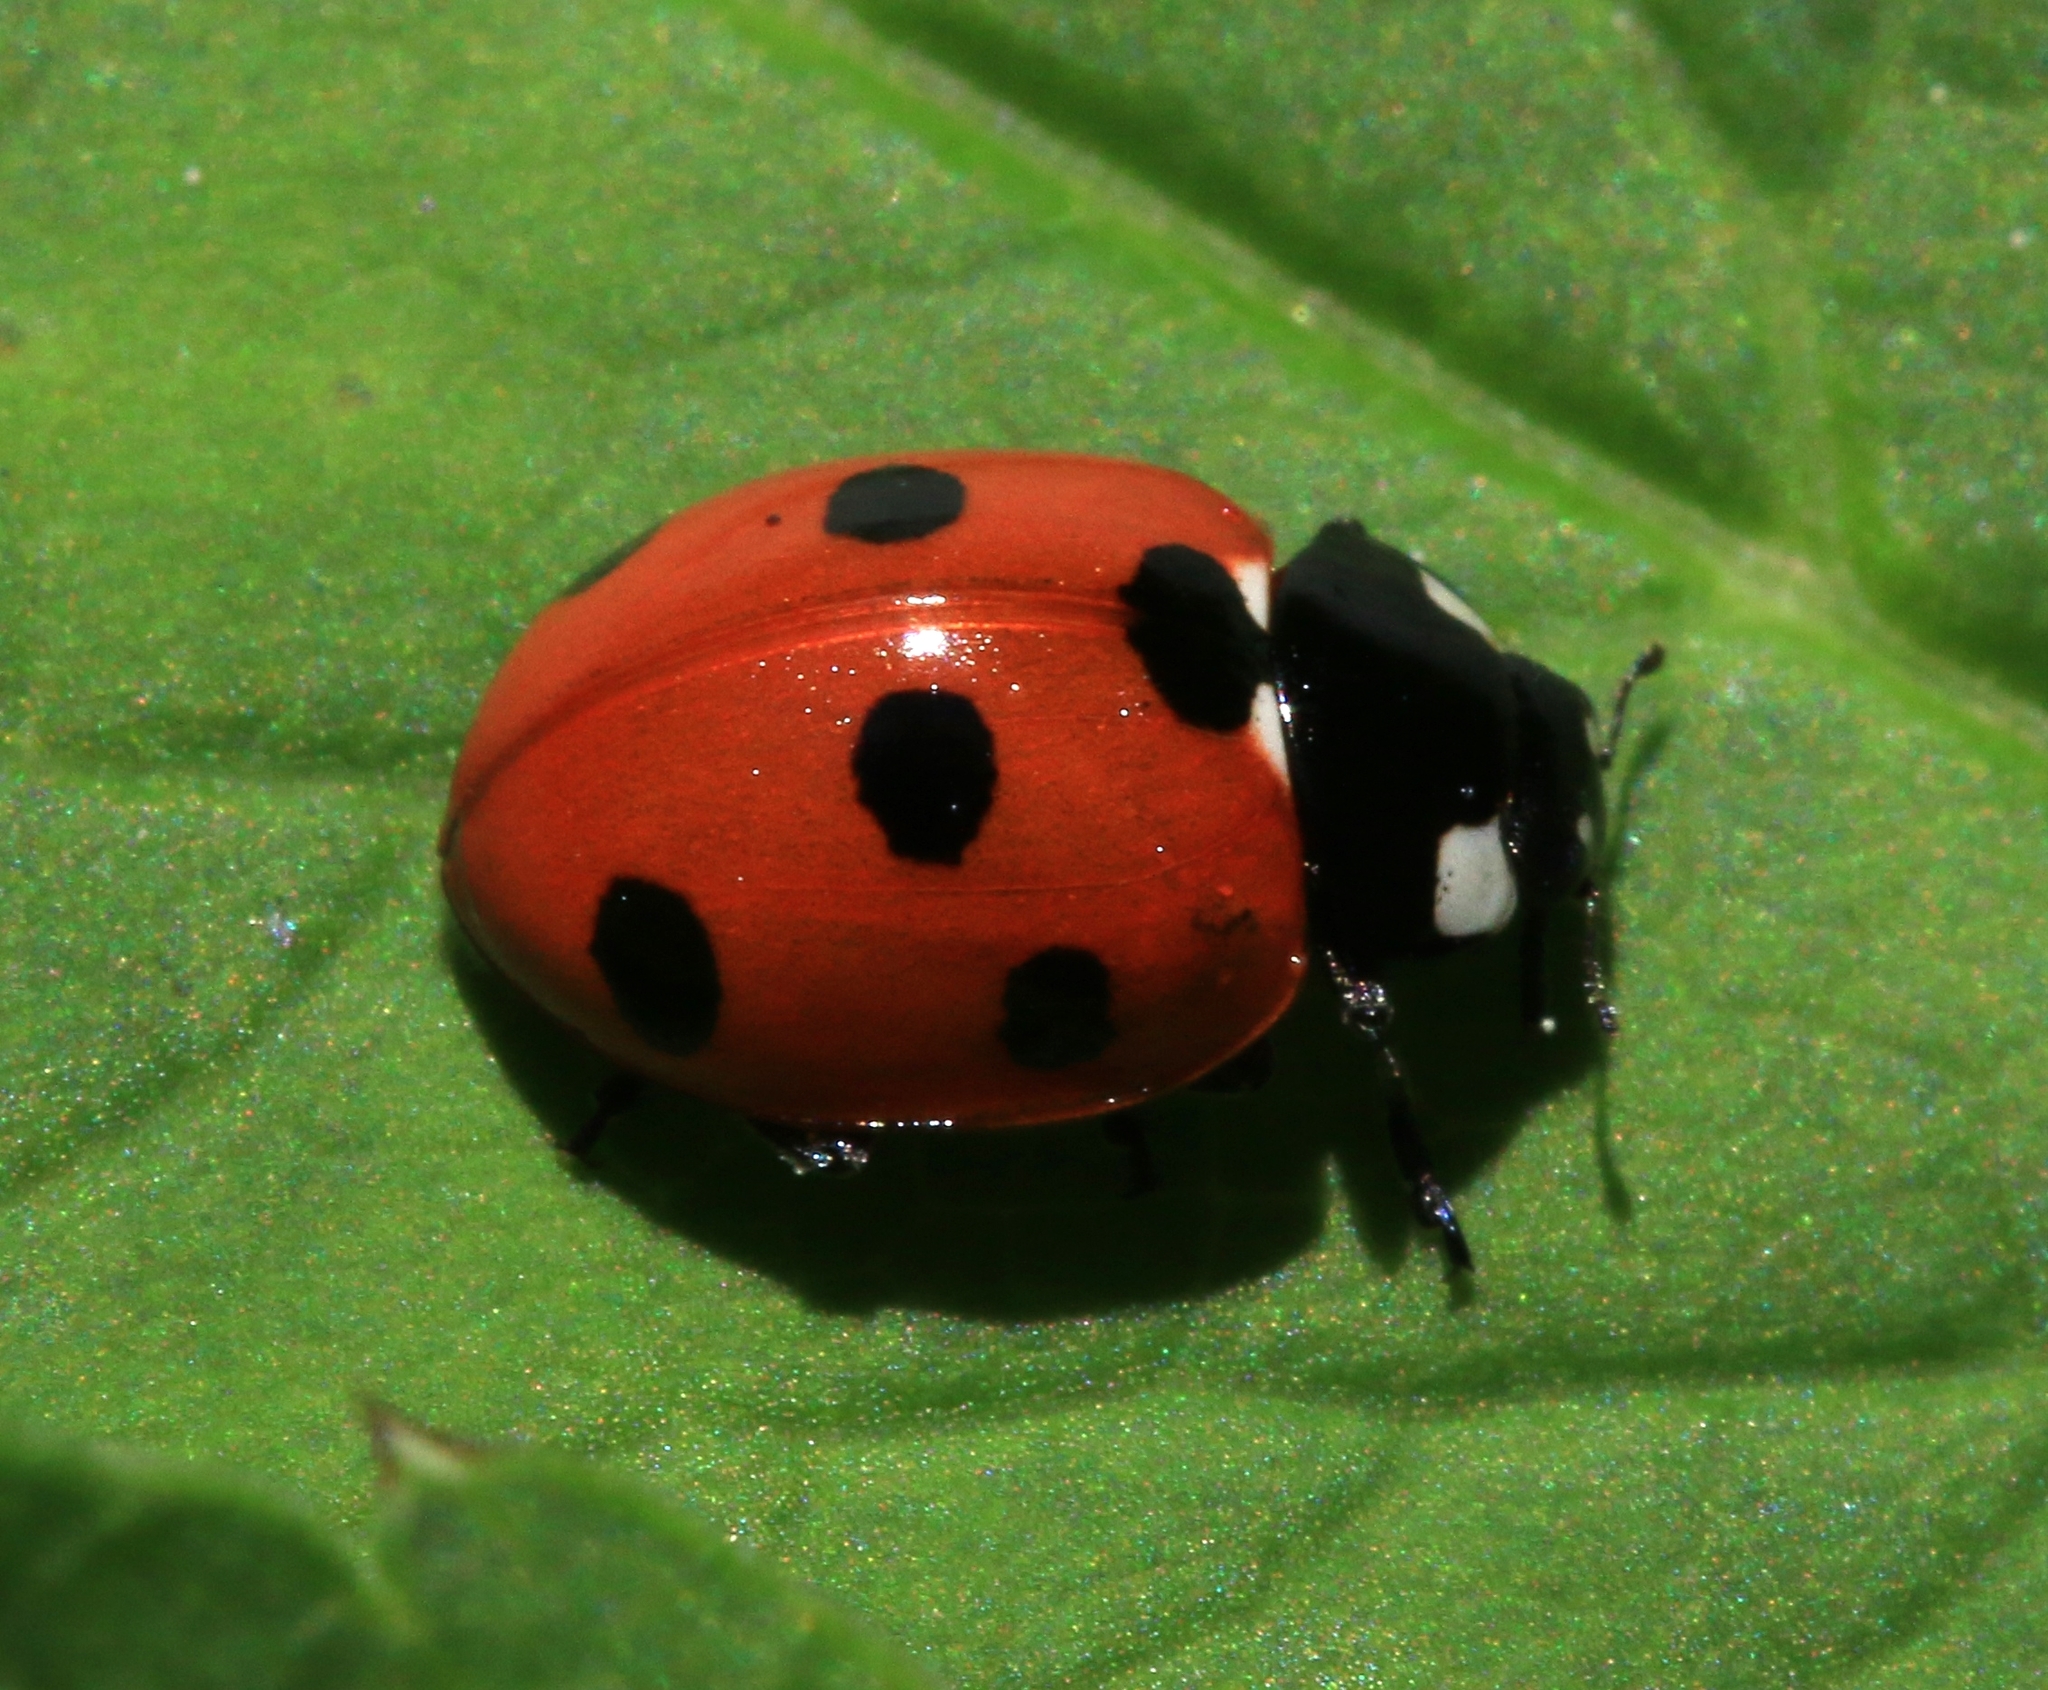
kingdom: Animalia
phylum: Arthropoda
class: Insecta
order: Coleoptera
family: Coccinellidae
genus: Coccinella
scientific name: Coccinella septempunctata
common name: Sevenspotted lady beetle
